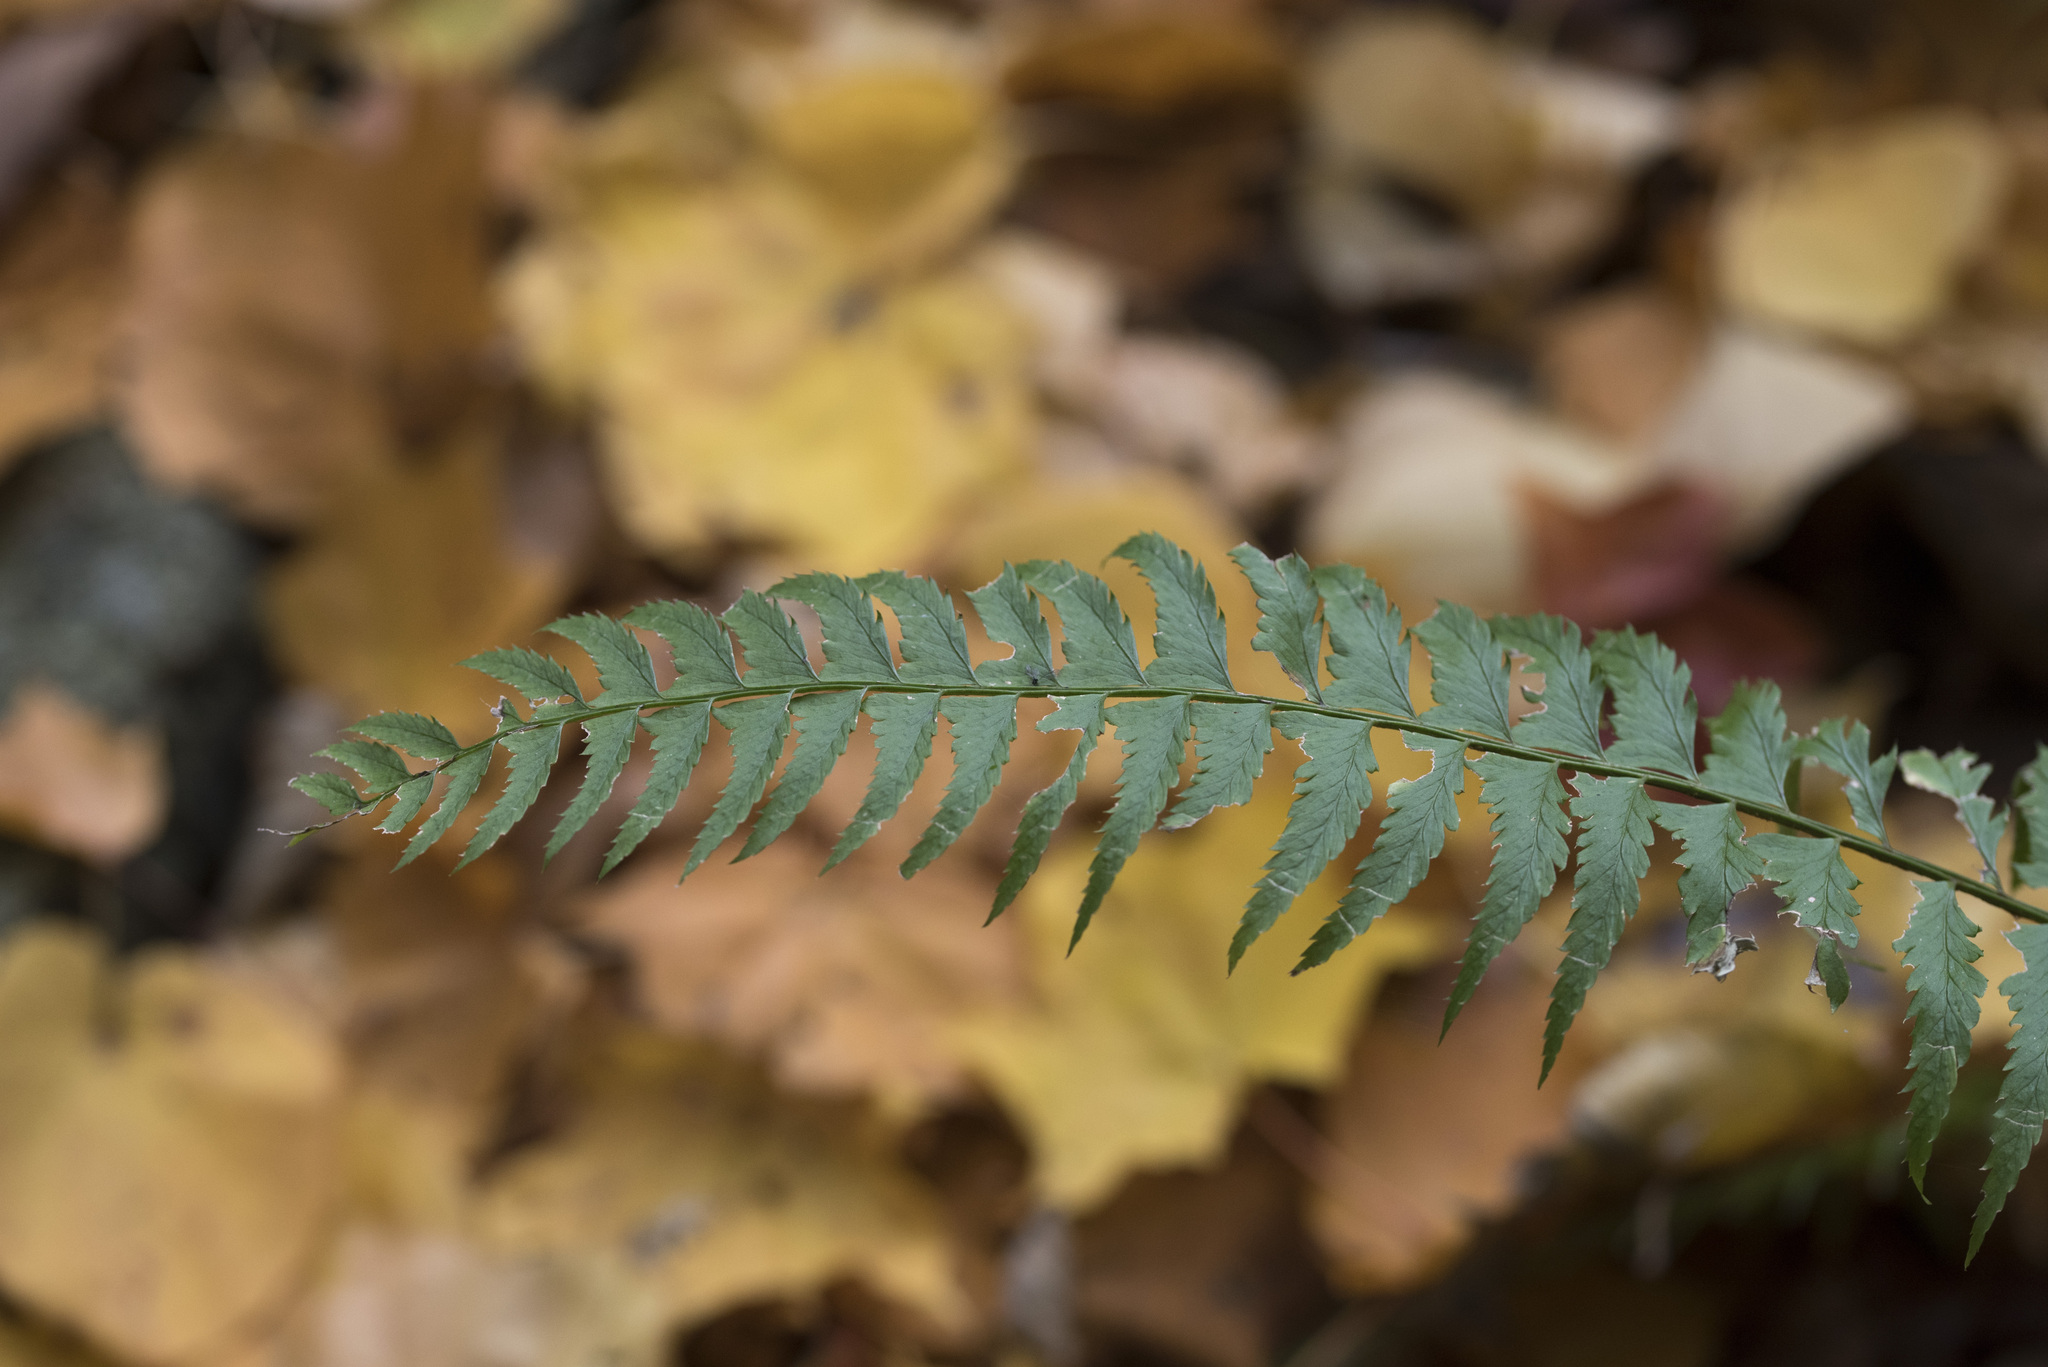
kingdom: Plantae
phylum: Tracheophyta
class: Polypodiopsida
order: Polypodiales
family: Dryopteridaceae
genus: Polystichum
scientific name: Polystichum tripteron
